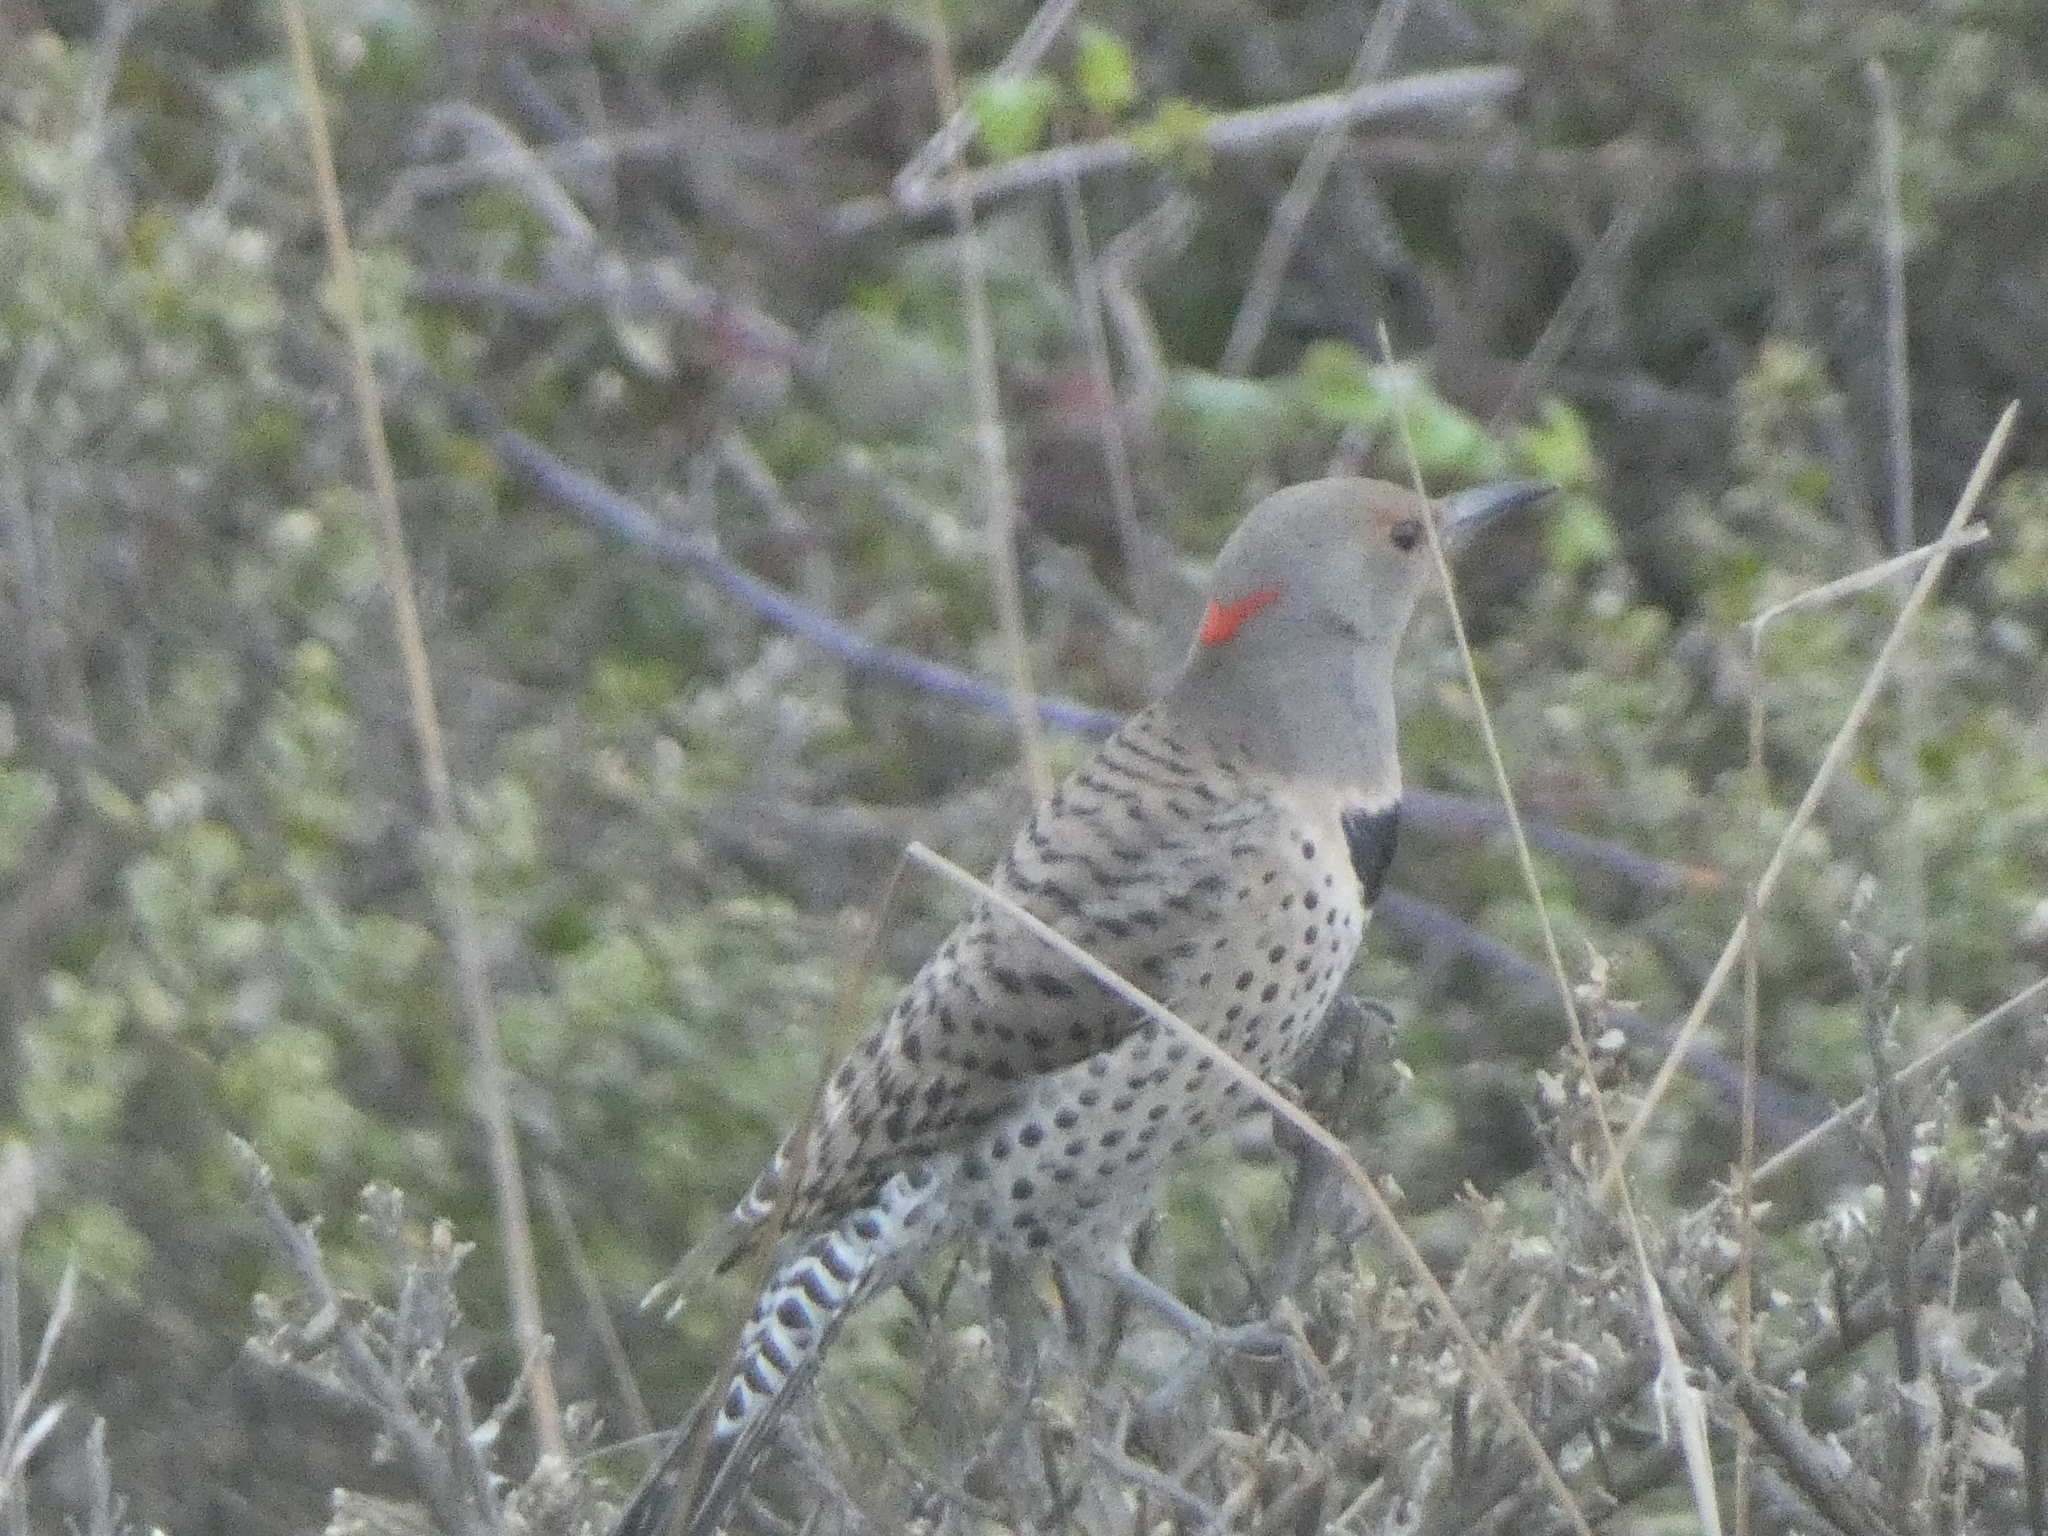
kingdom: Animalia
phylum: Chordata
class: Aves
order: Piciformes
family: Picidae
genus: Colaptes
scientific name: Colaptes auratus
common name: Northern flicker
